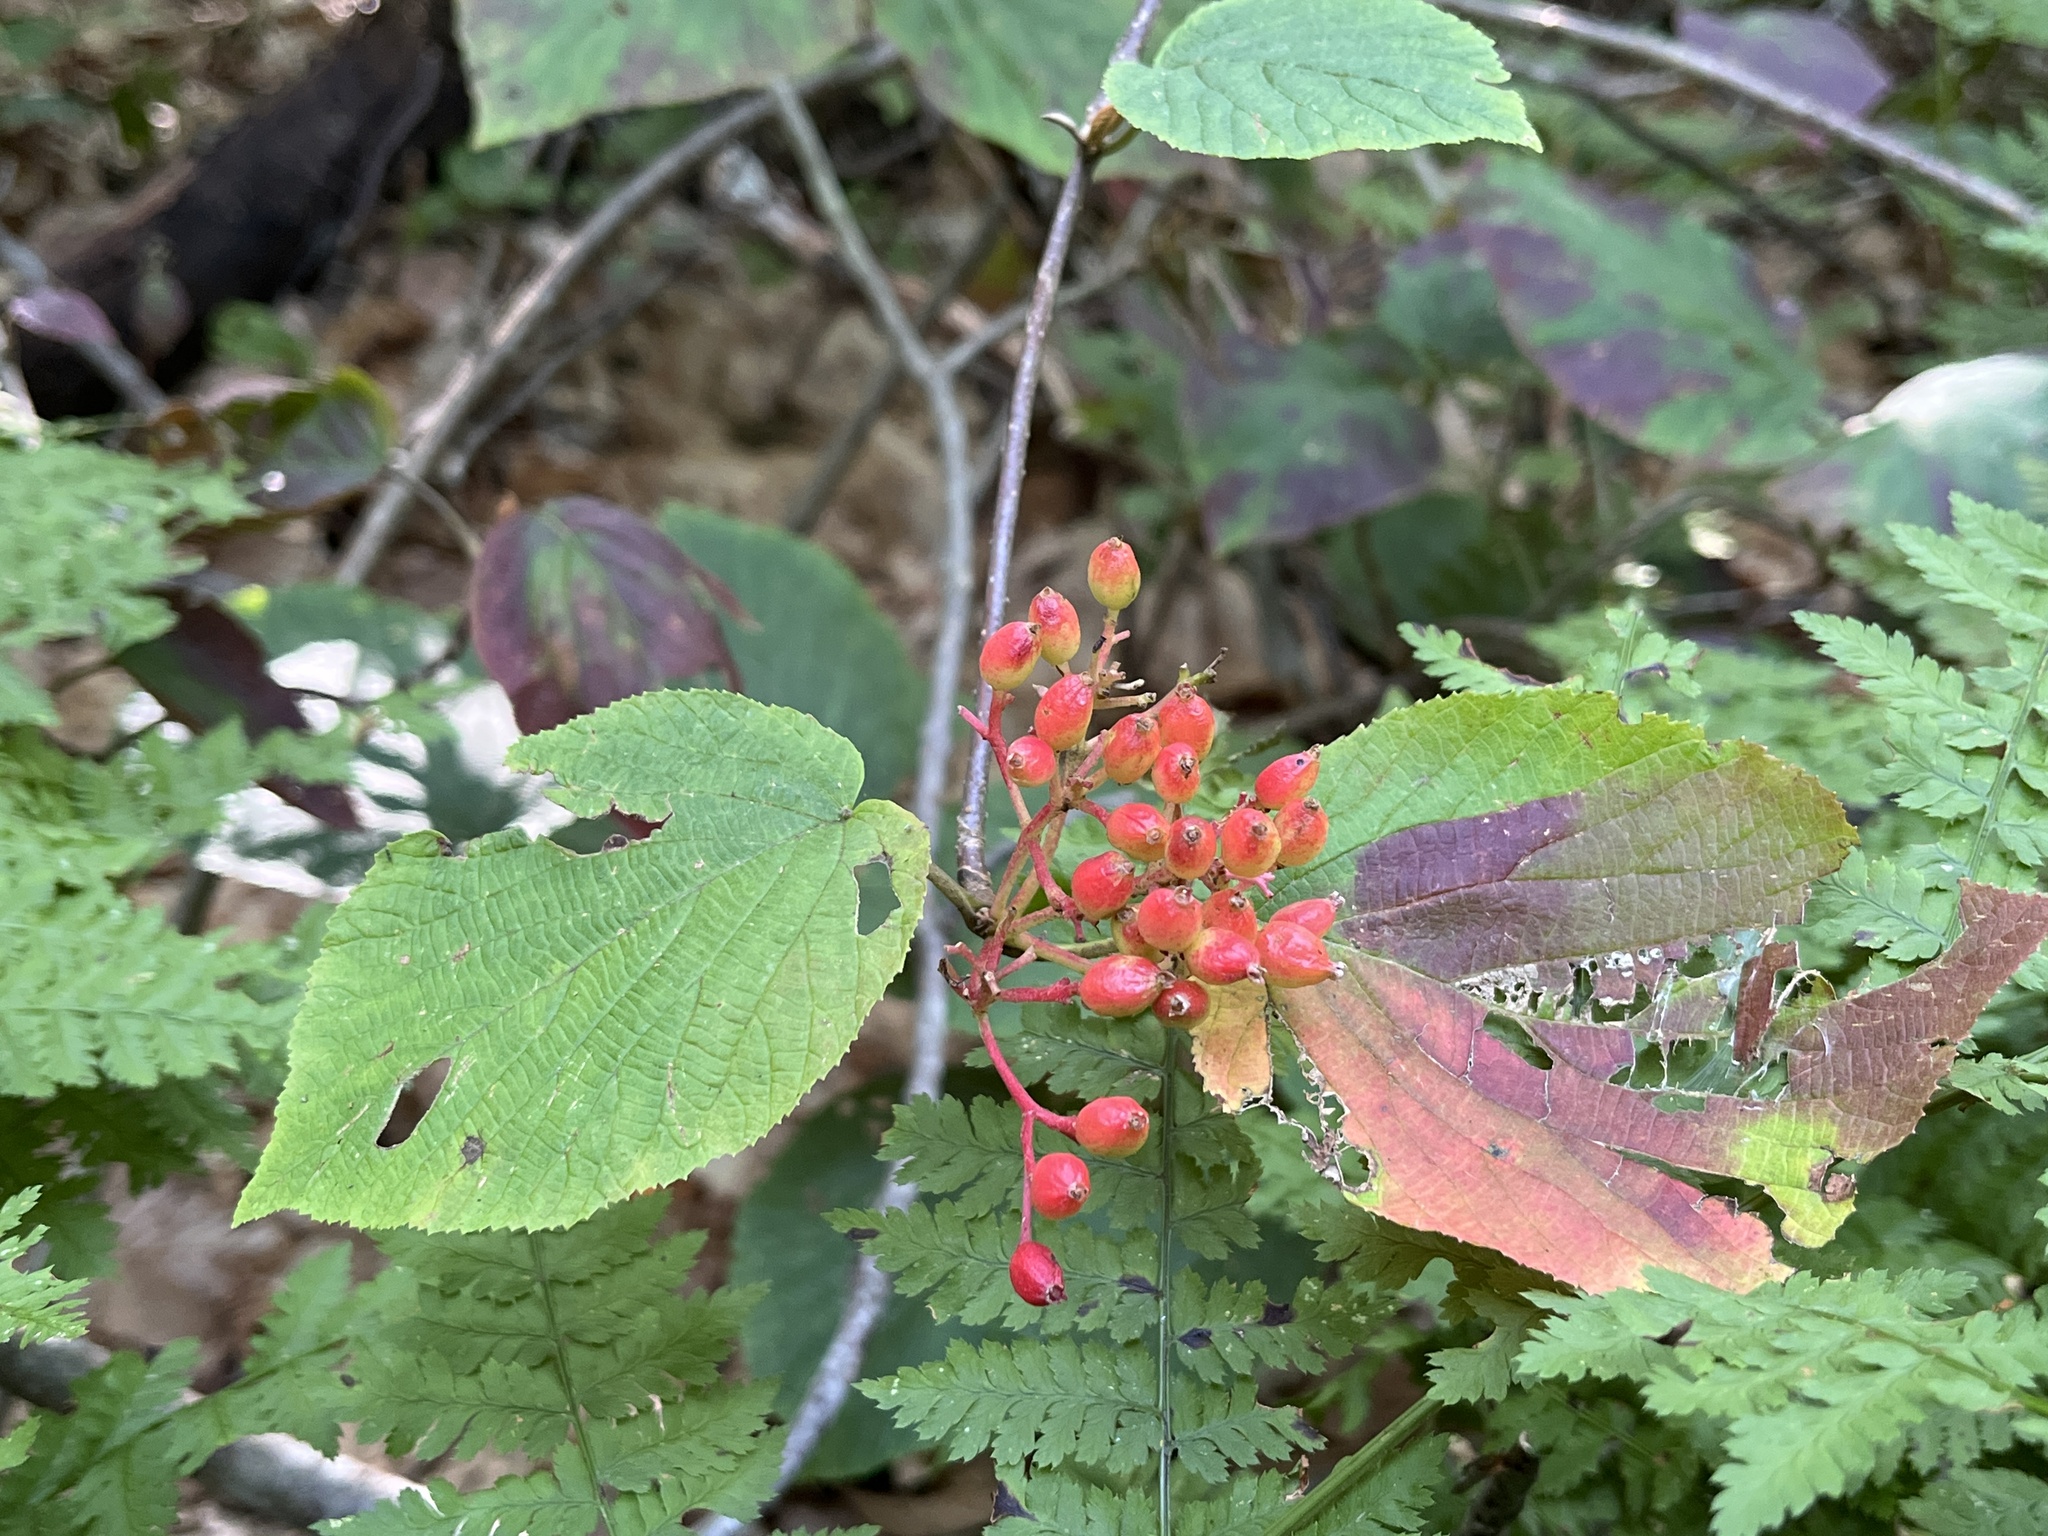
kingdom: Plantae
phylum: Tracheophyta
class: Magnoliopsida
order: Dipsacales
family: Viburnaceae
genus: Viburnum
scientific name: Viburnum lantanoides
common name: Hobblebush
